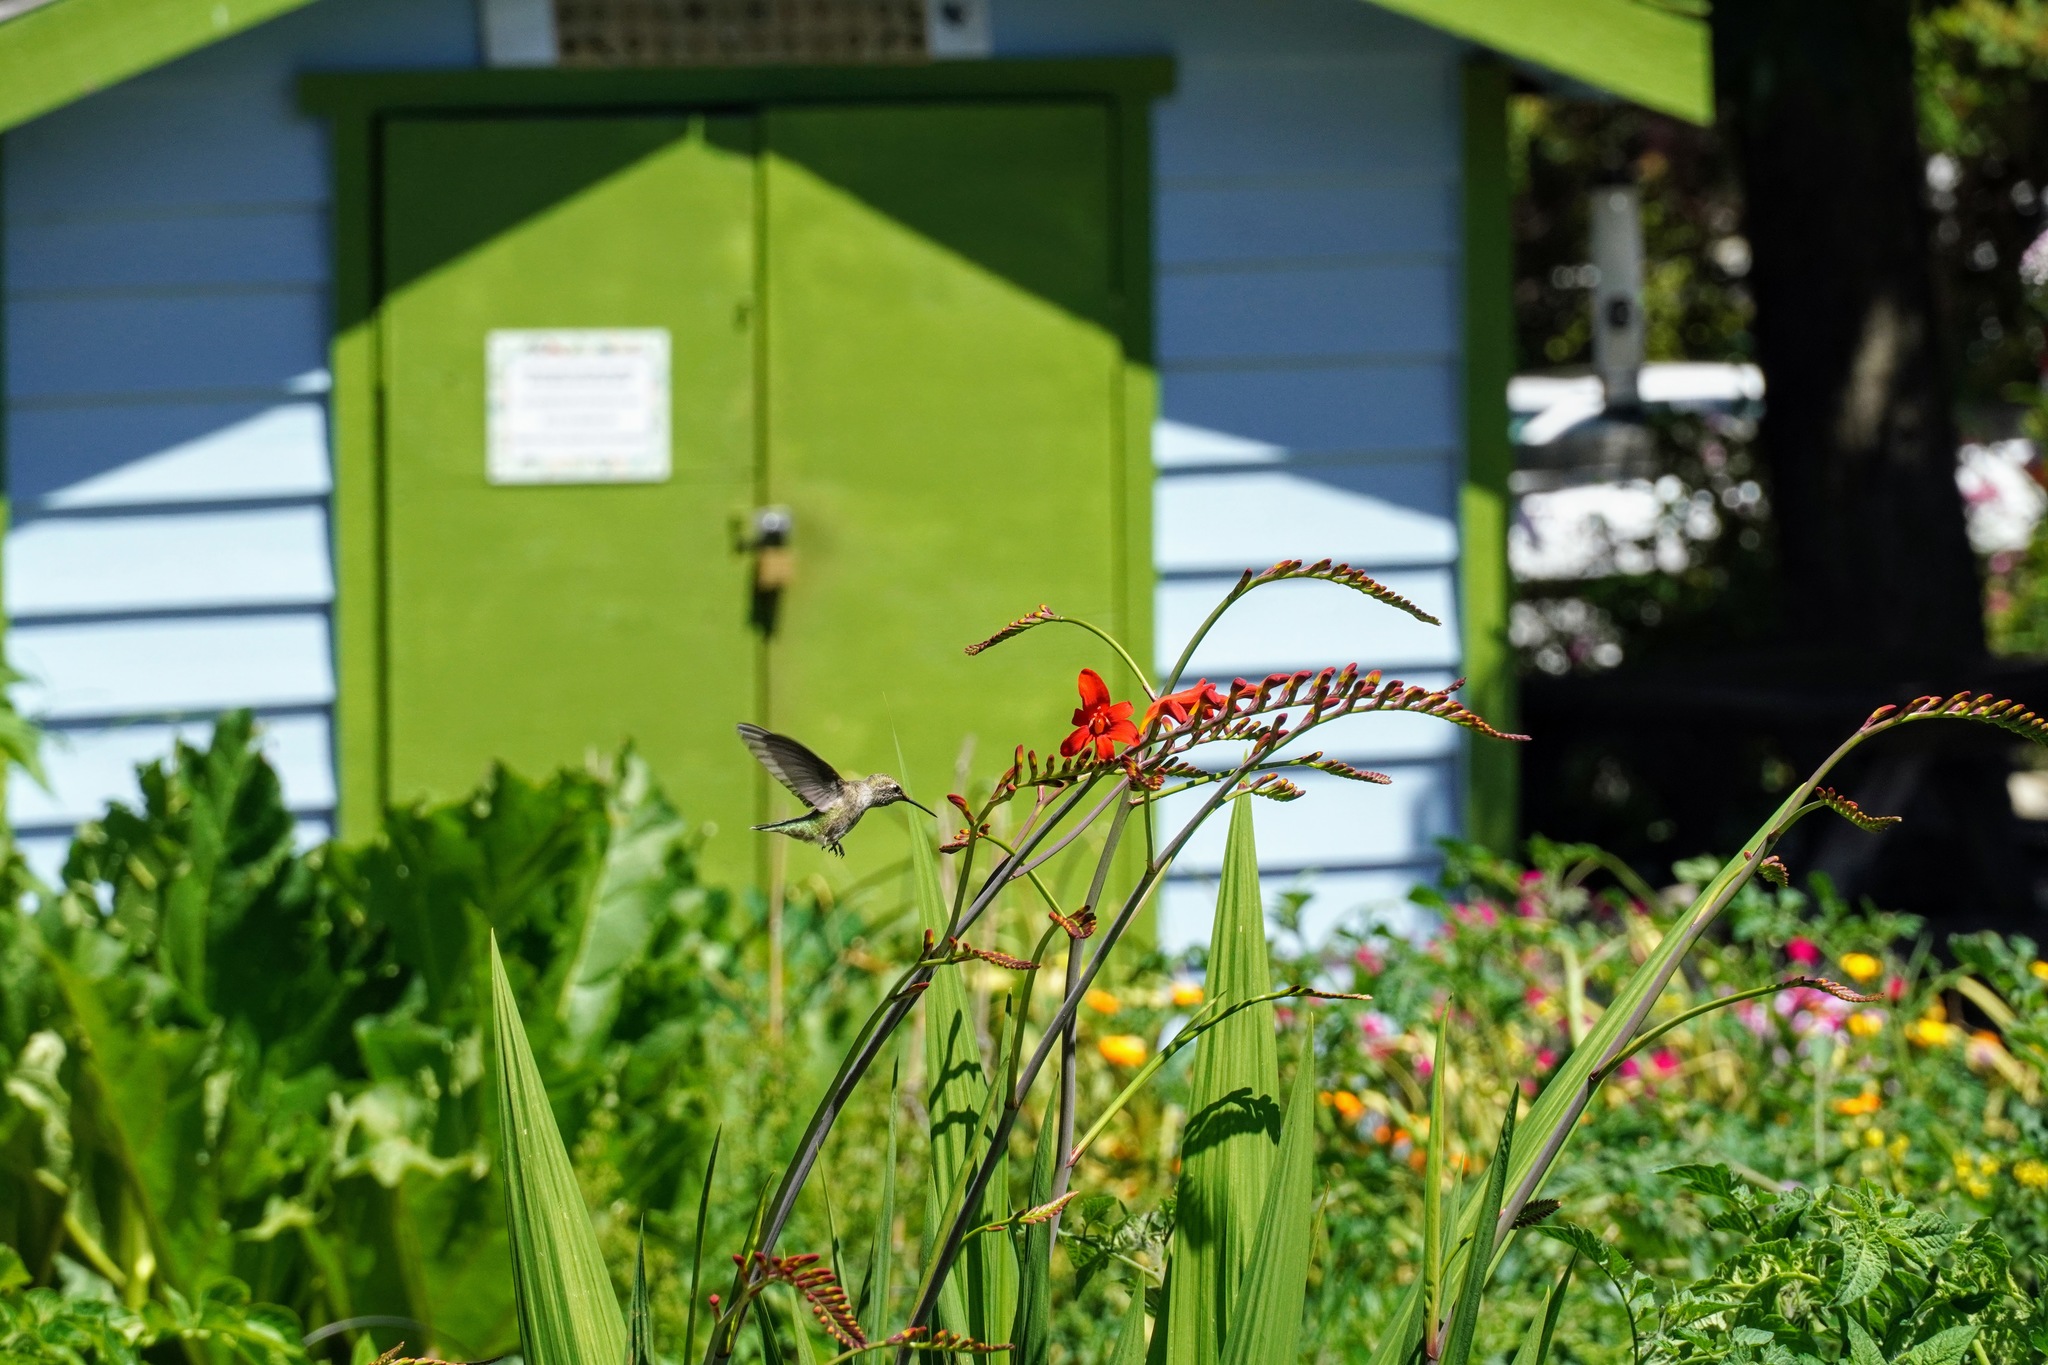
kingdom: Animalia
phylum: Chordata
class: Aves
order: Apodiformes
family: Trochilidae
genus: Calypte
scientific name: Calypte anna
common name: Anna's hummingbird
